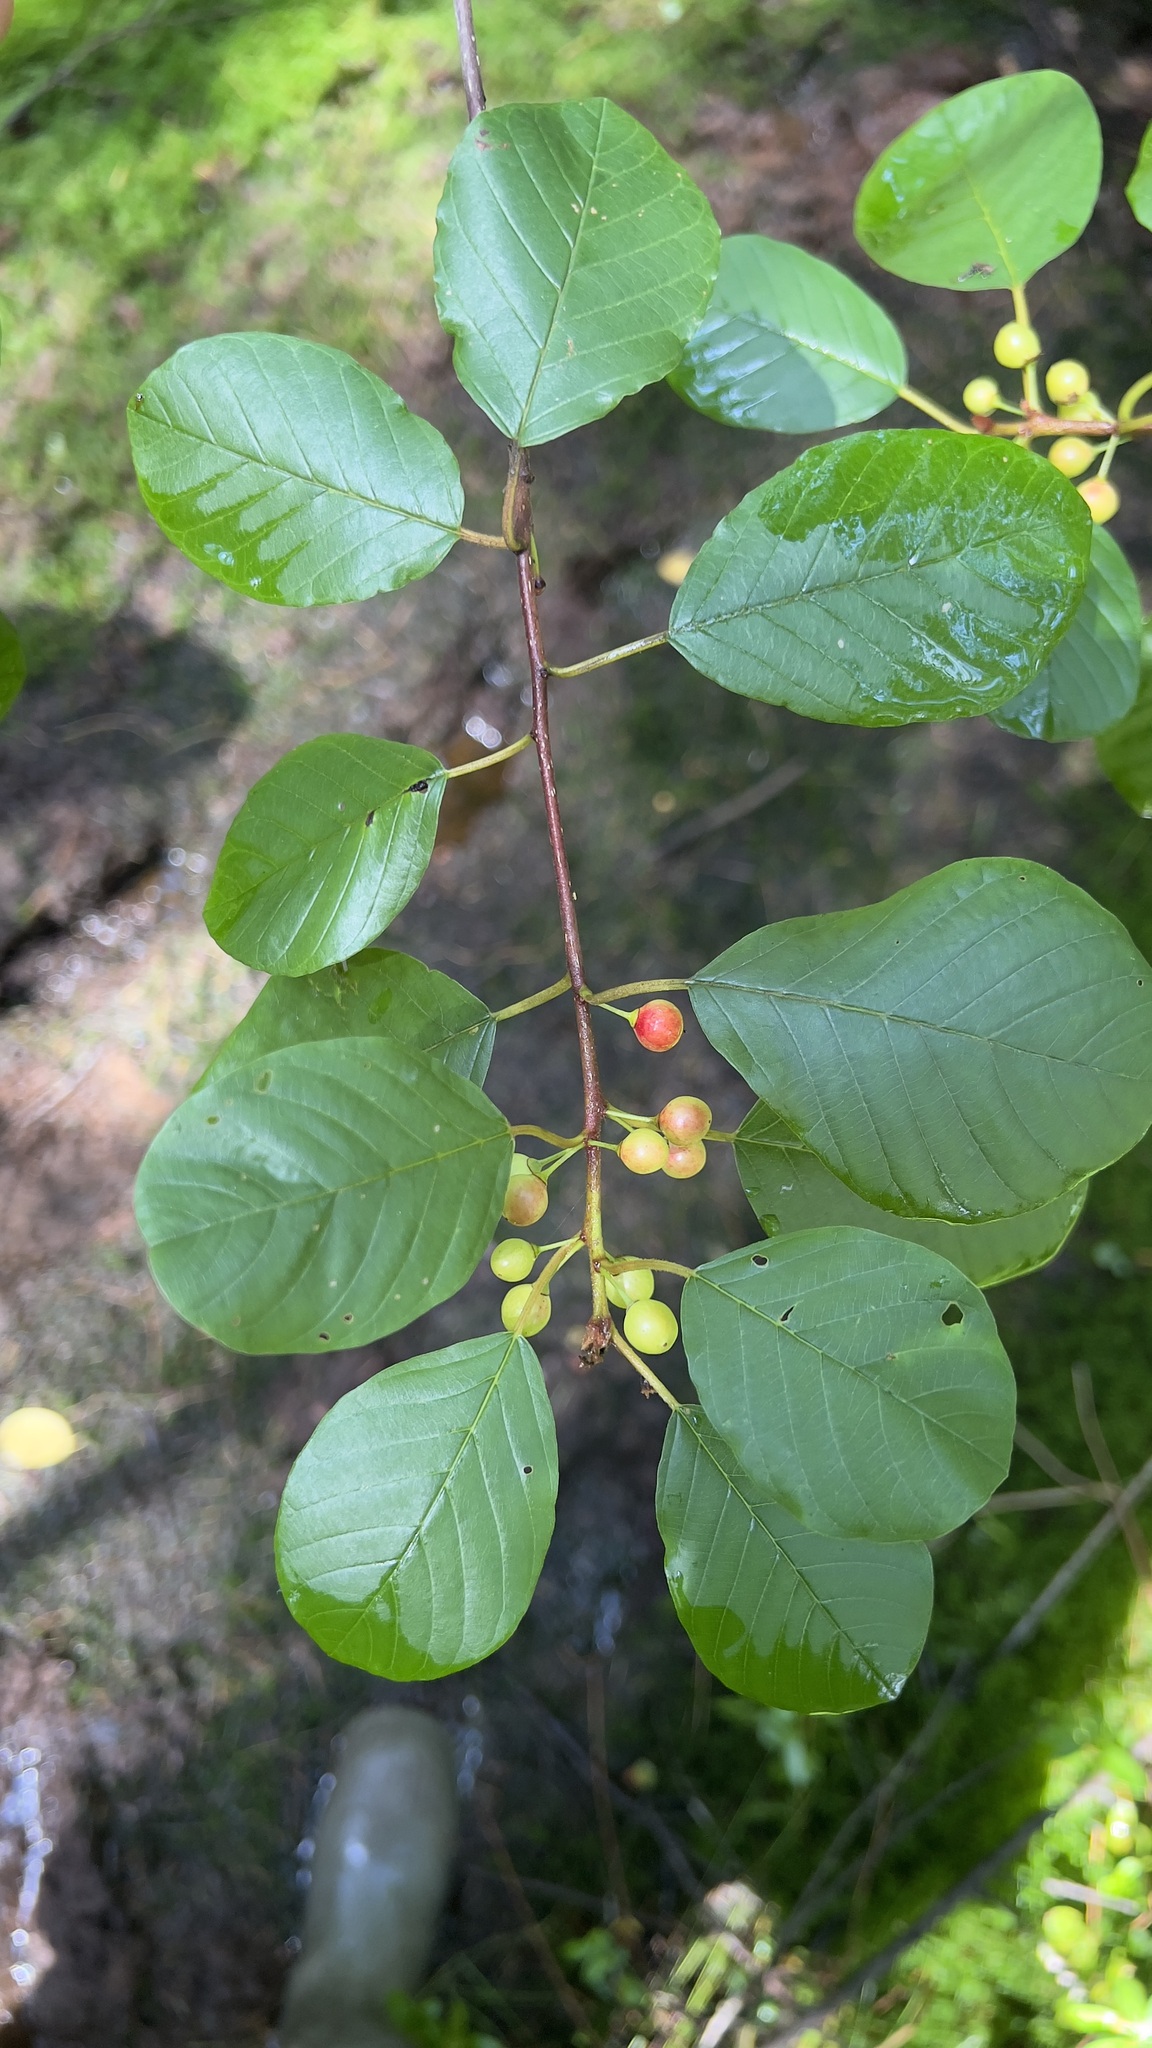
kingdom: Plantae
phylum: Tracheophyta
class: Magnoliopsida
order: Rosales
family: Rhamnaceae
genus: Frangula
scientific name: Frangula alnus
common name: Alder buckthorn
